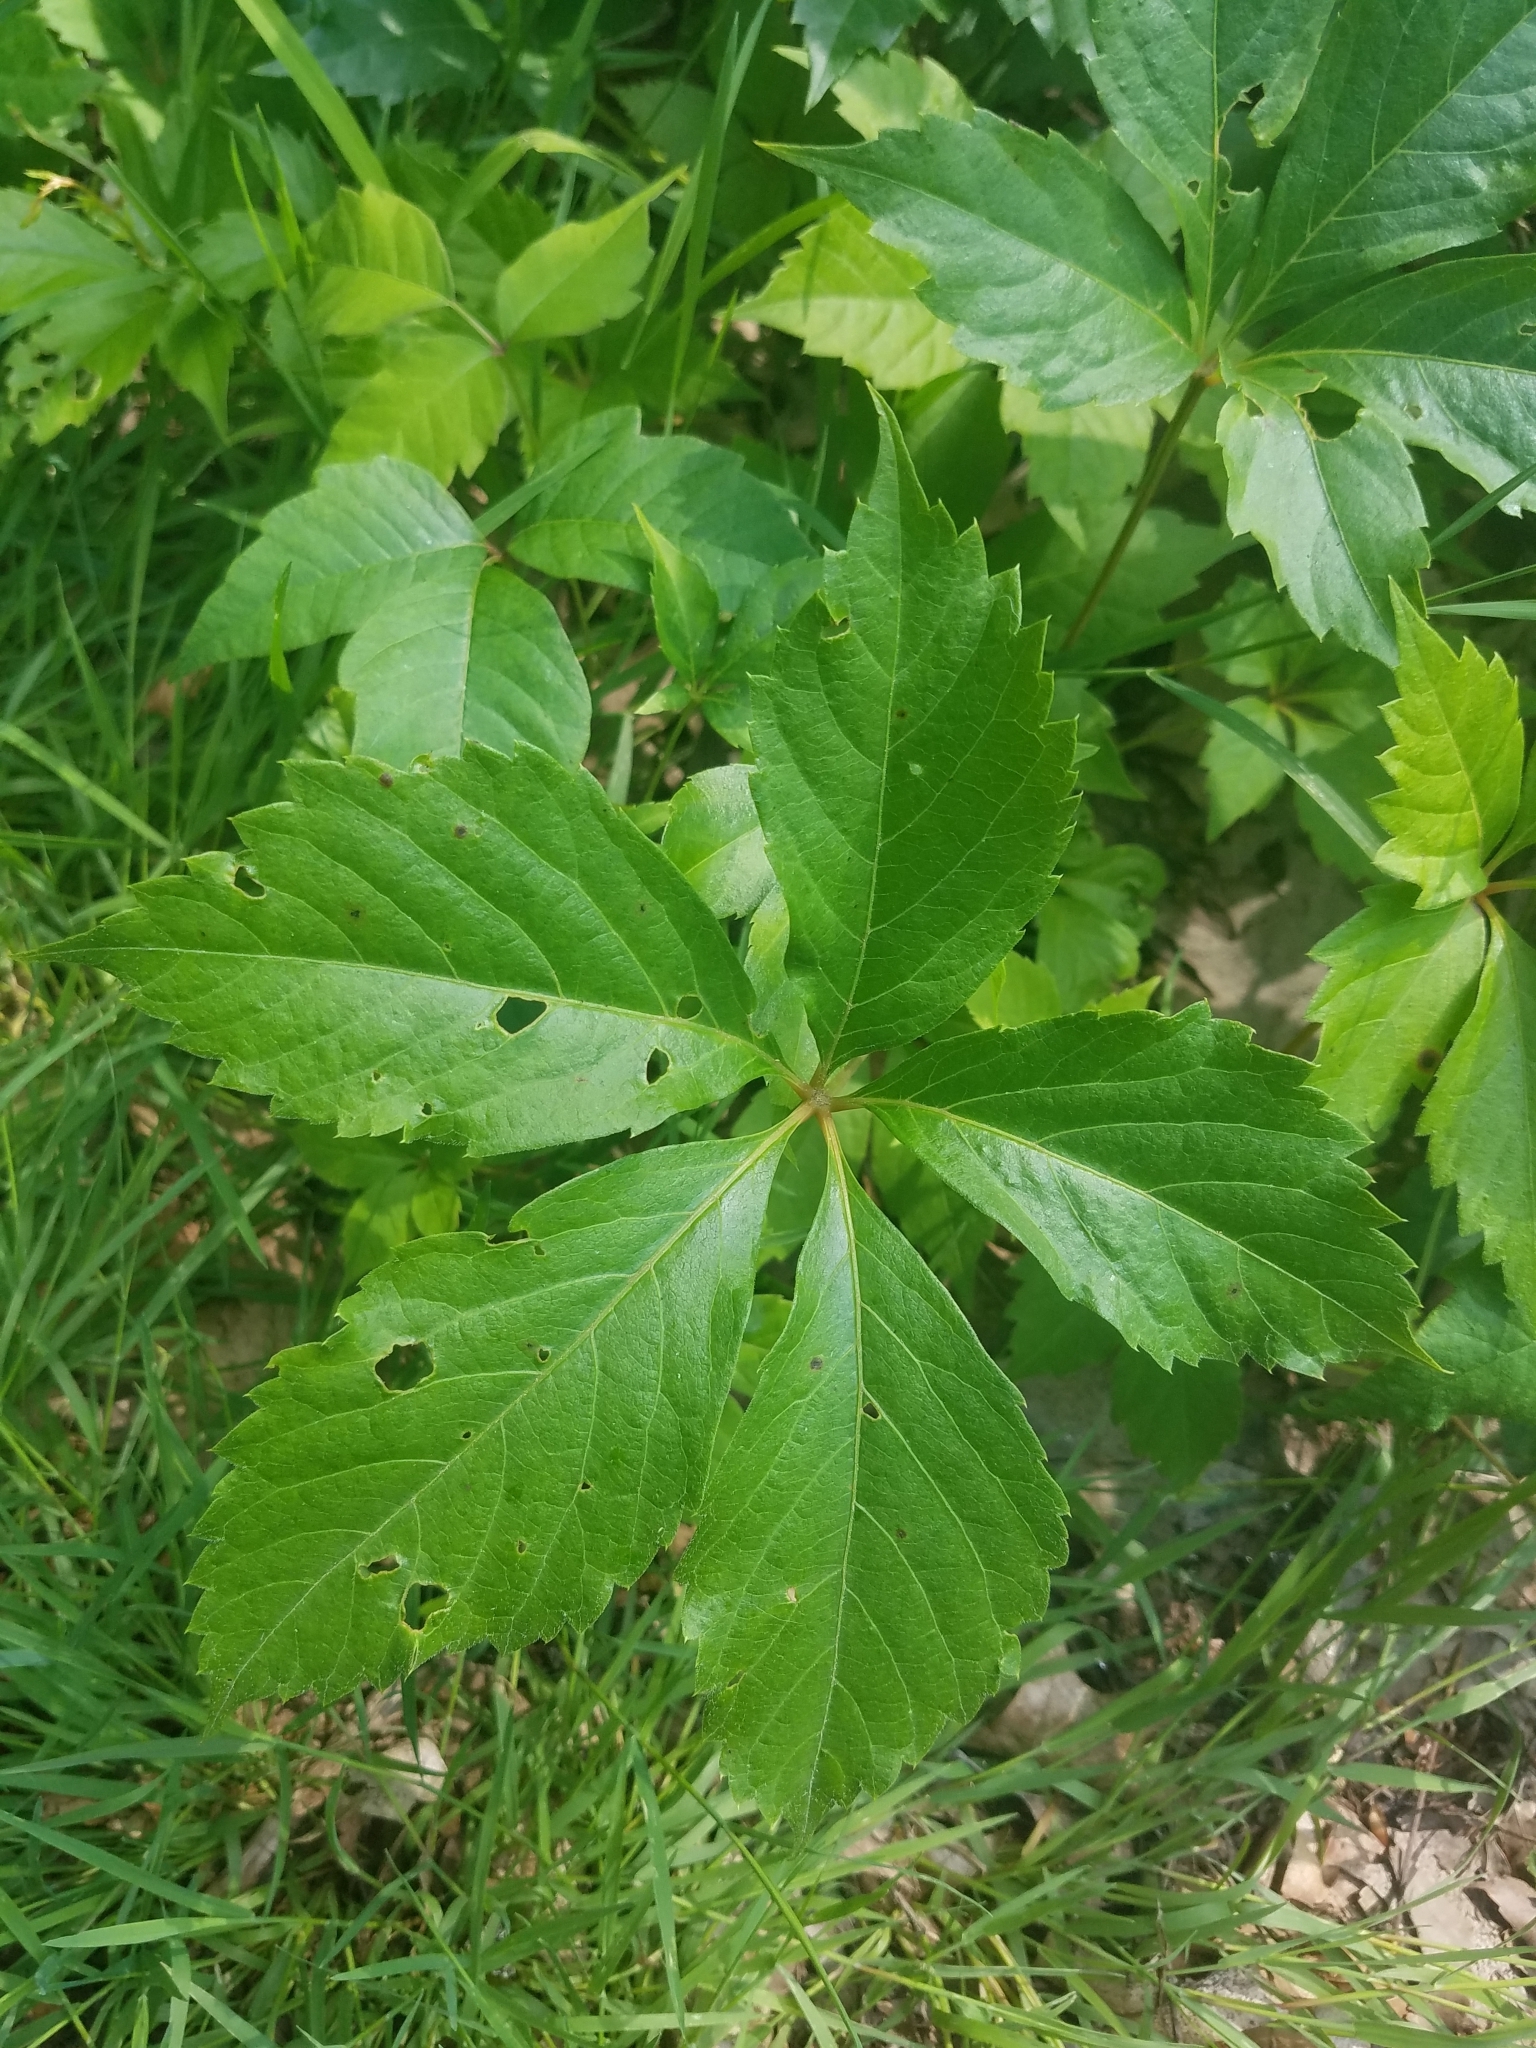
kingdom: Plantae
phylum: Tracheophyta
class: Magnoliopsida
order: Vitales
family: Vitaceae
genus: Parthenocissus
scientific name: Parthenocissus quinquefolia
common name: Virginia-creeper
